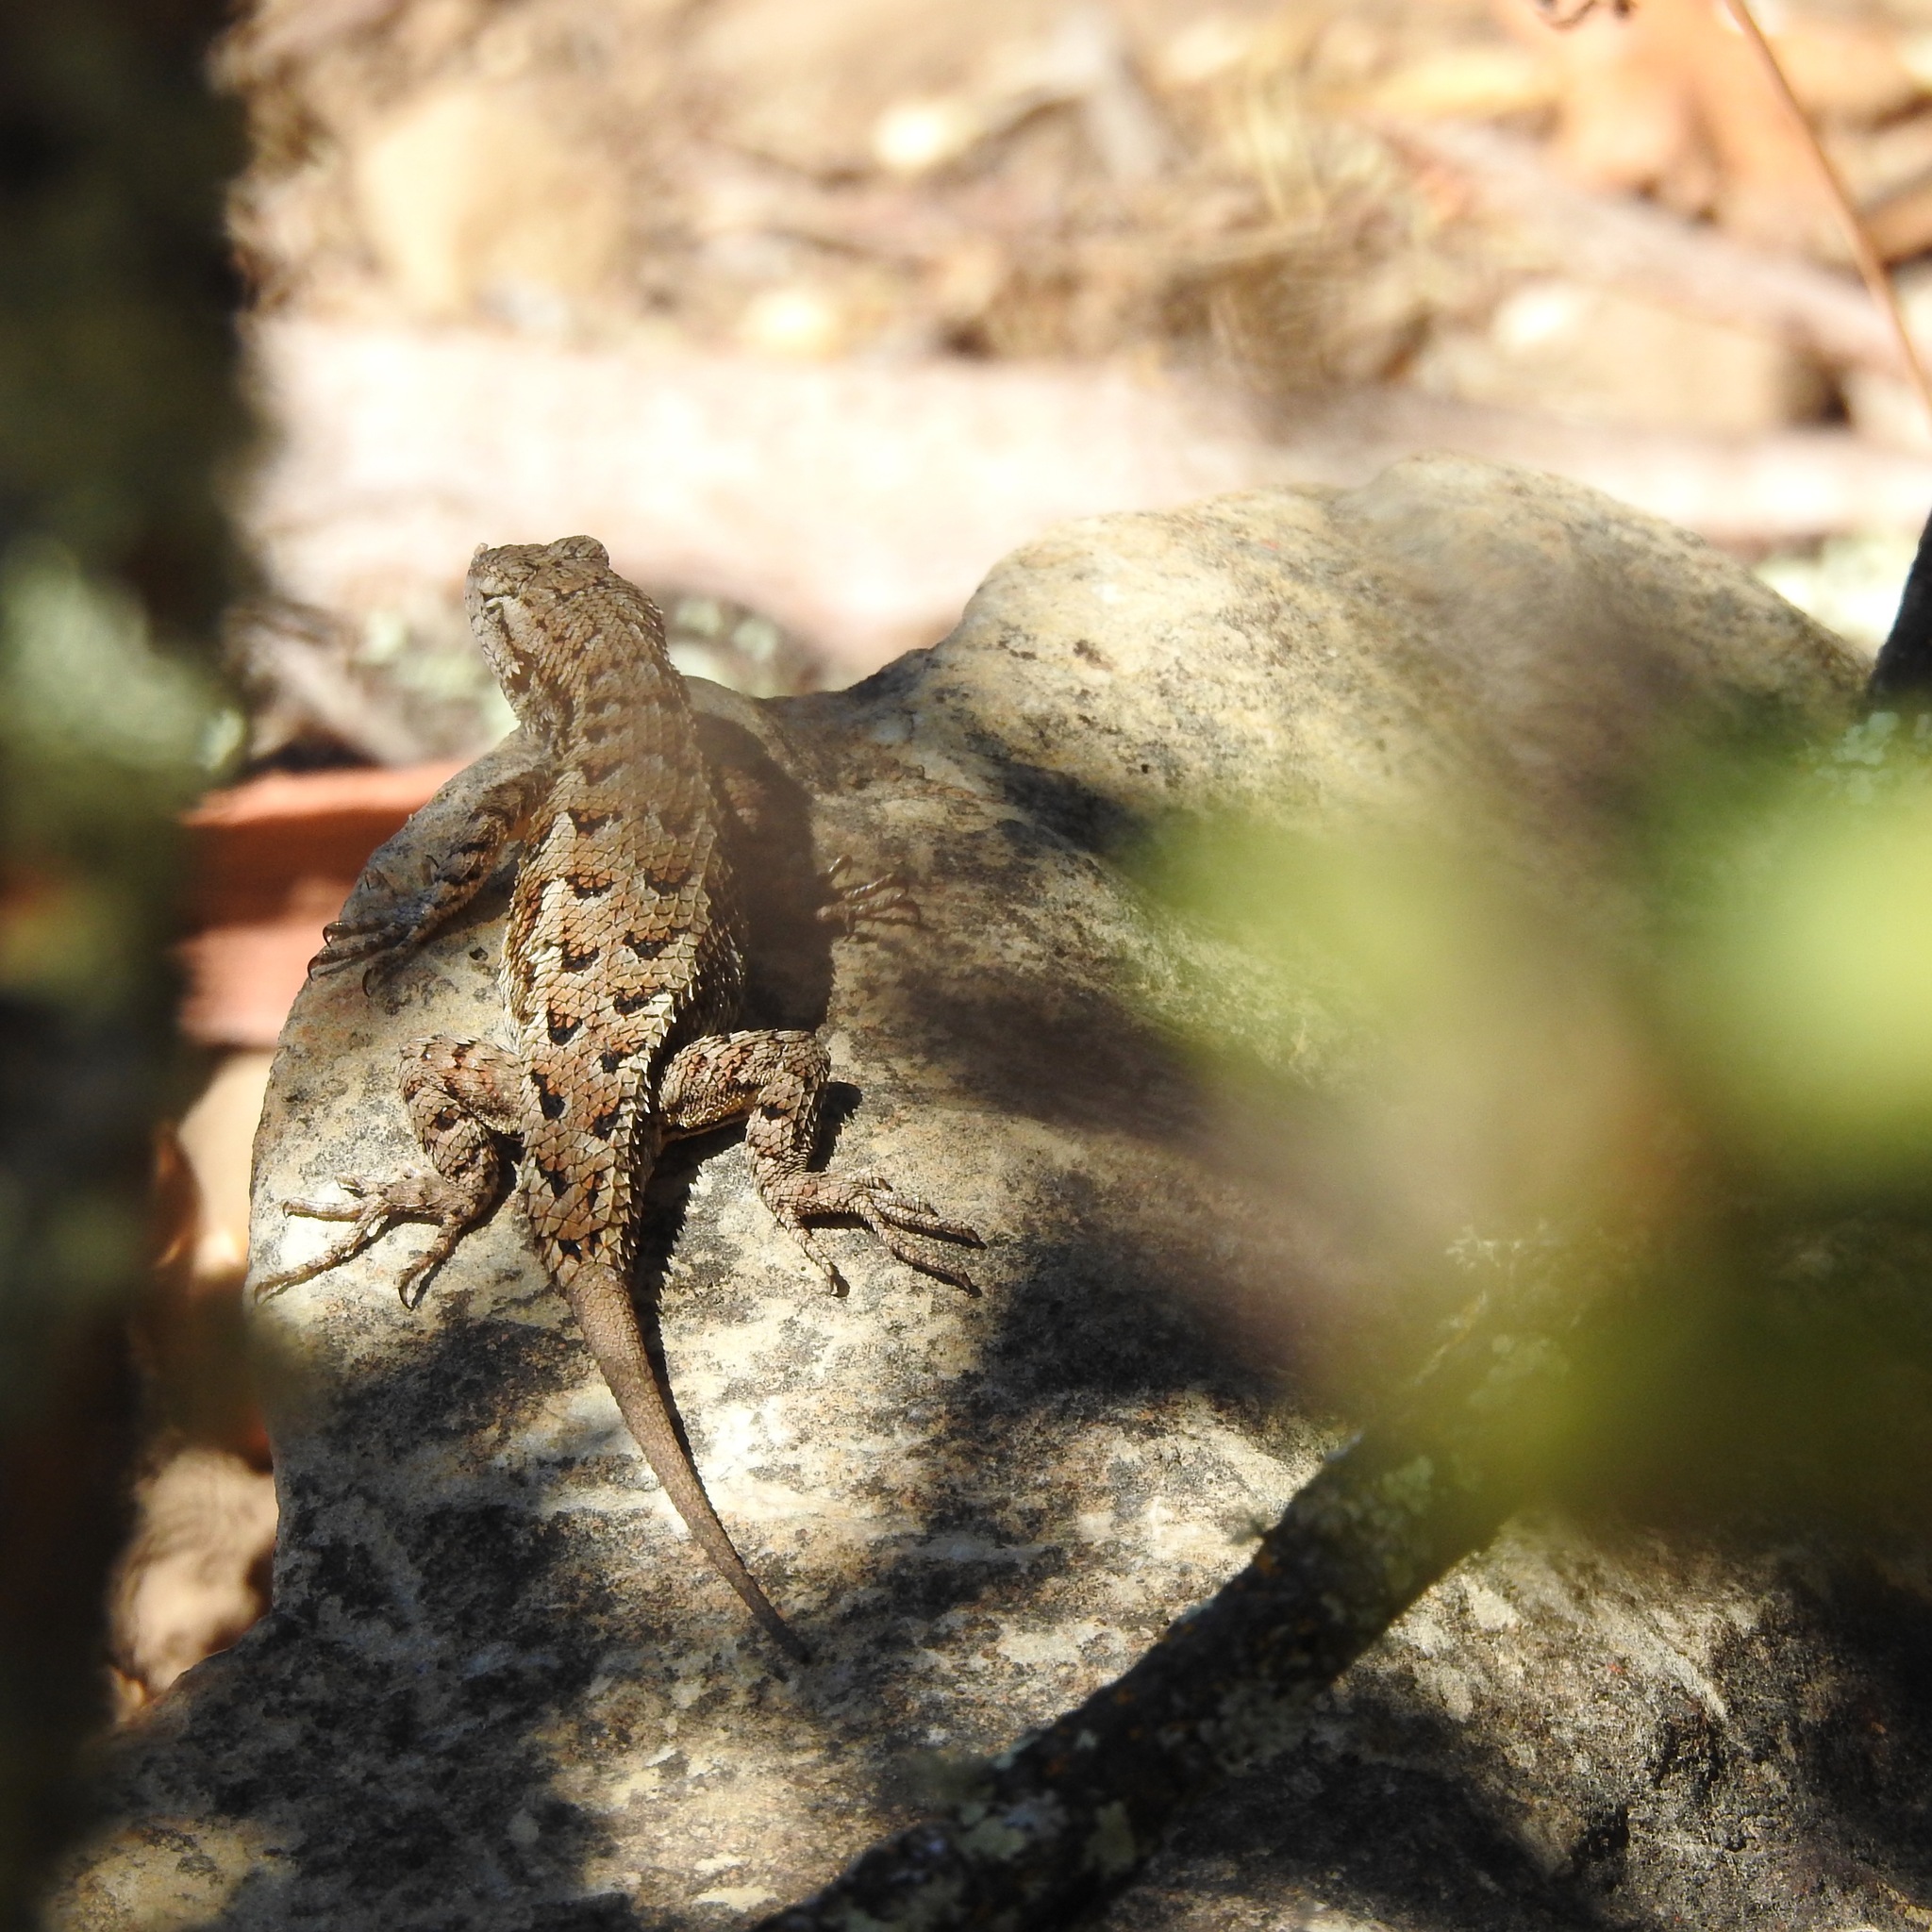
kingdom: Animalia
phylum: Chordata
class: Squamata
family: Phrynosomatidae
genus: Sceloporus
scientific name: Sceloporus occidentalis
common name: Western fence lizard
